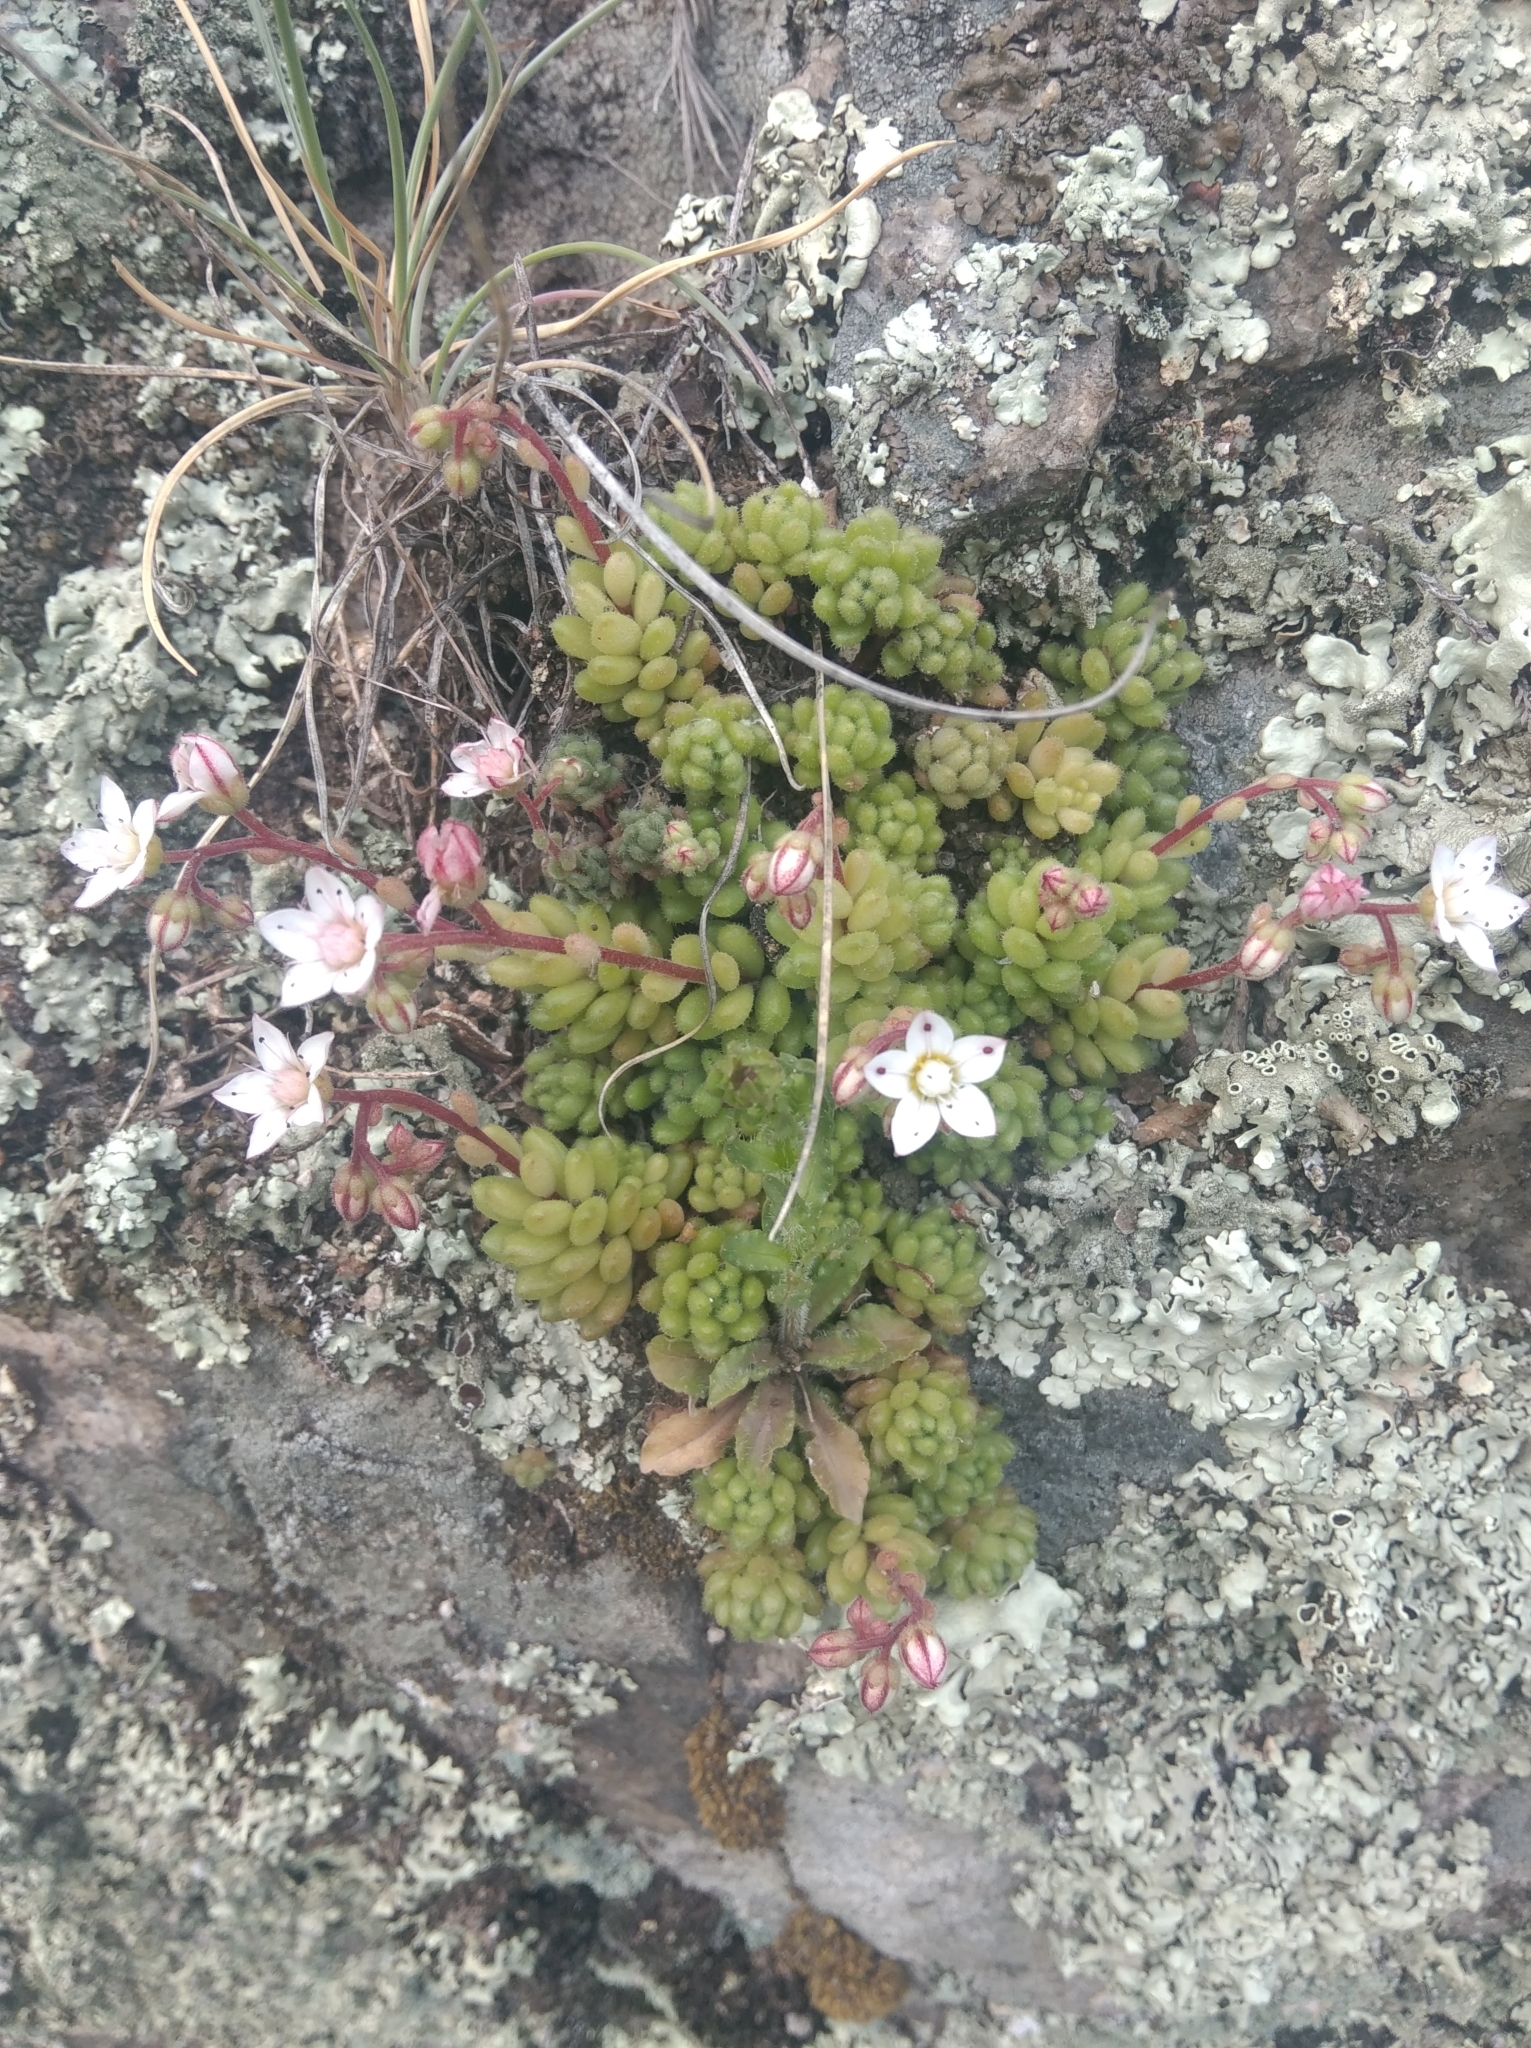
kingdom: Plantae
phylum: Tracheophyta
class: Magnoliopsida
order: Saxifragales
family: Crassulaceae
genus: Sedum
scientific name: Sedum hirsutum
